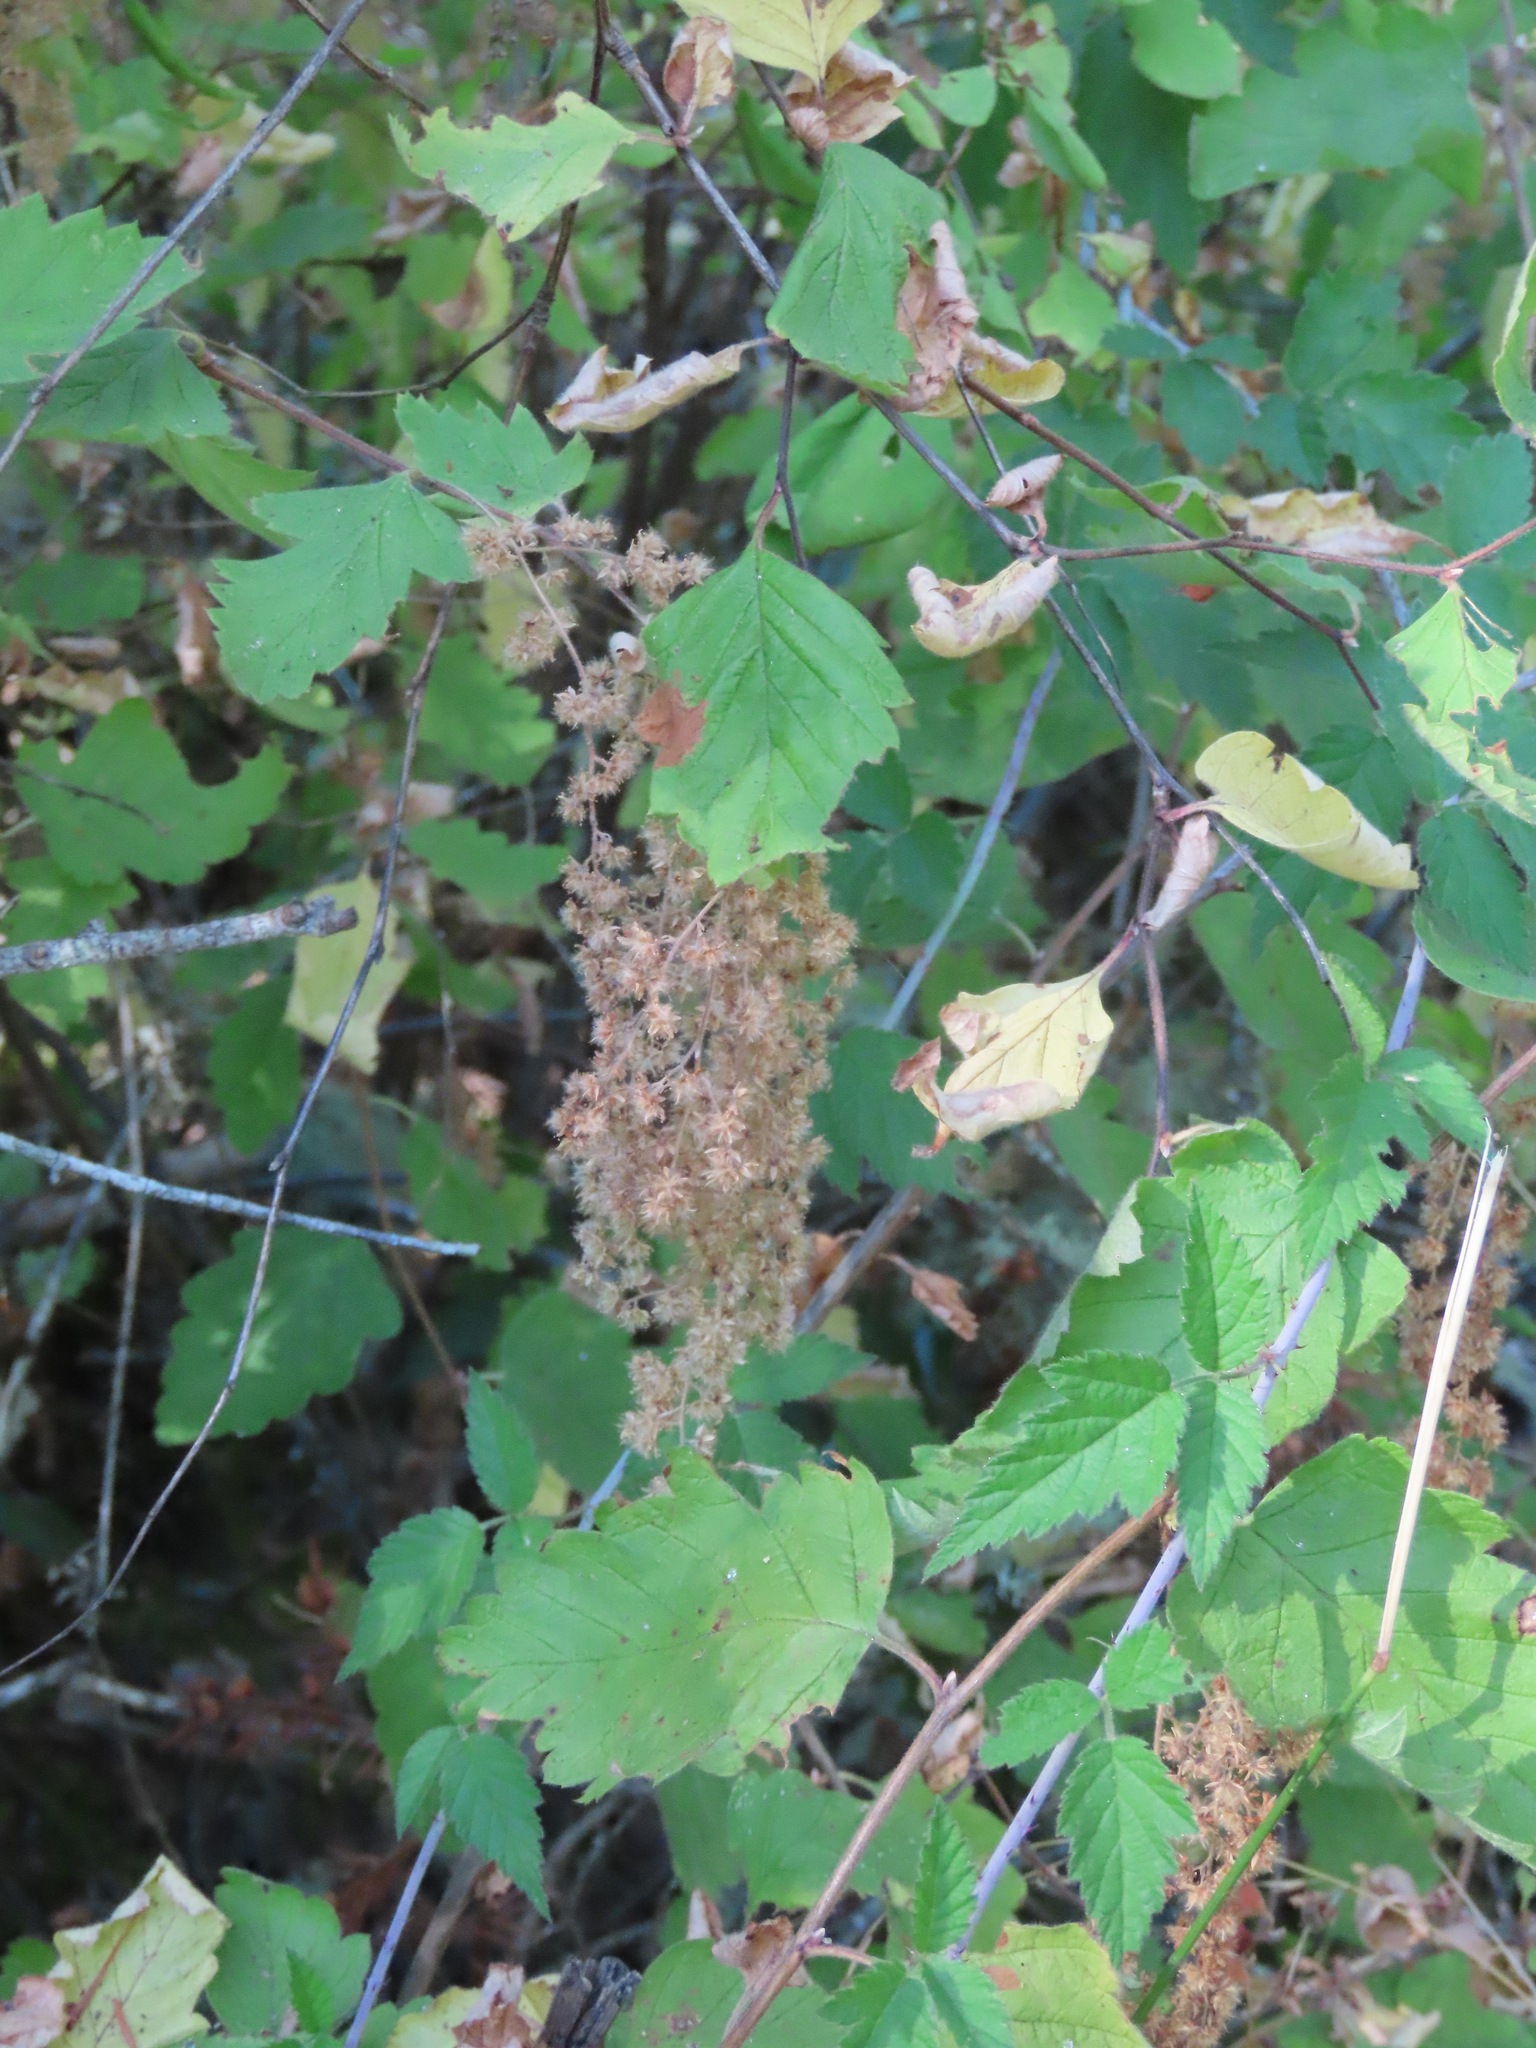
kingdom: Plantae
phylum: Tracheophyta
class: Magnoliopsida
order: Rosales
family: Rosaceae
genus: Holodiscus
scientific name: Holodiscus discolor
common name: Oceanspray
